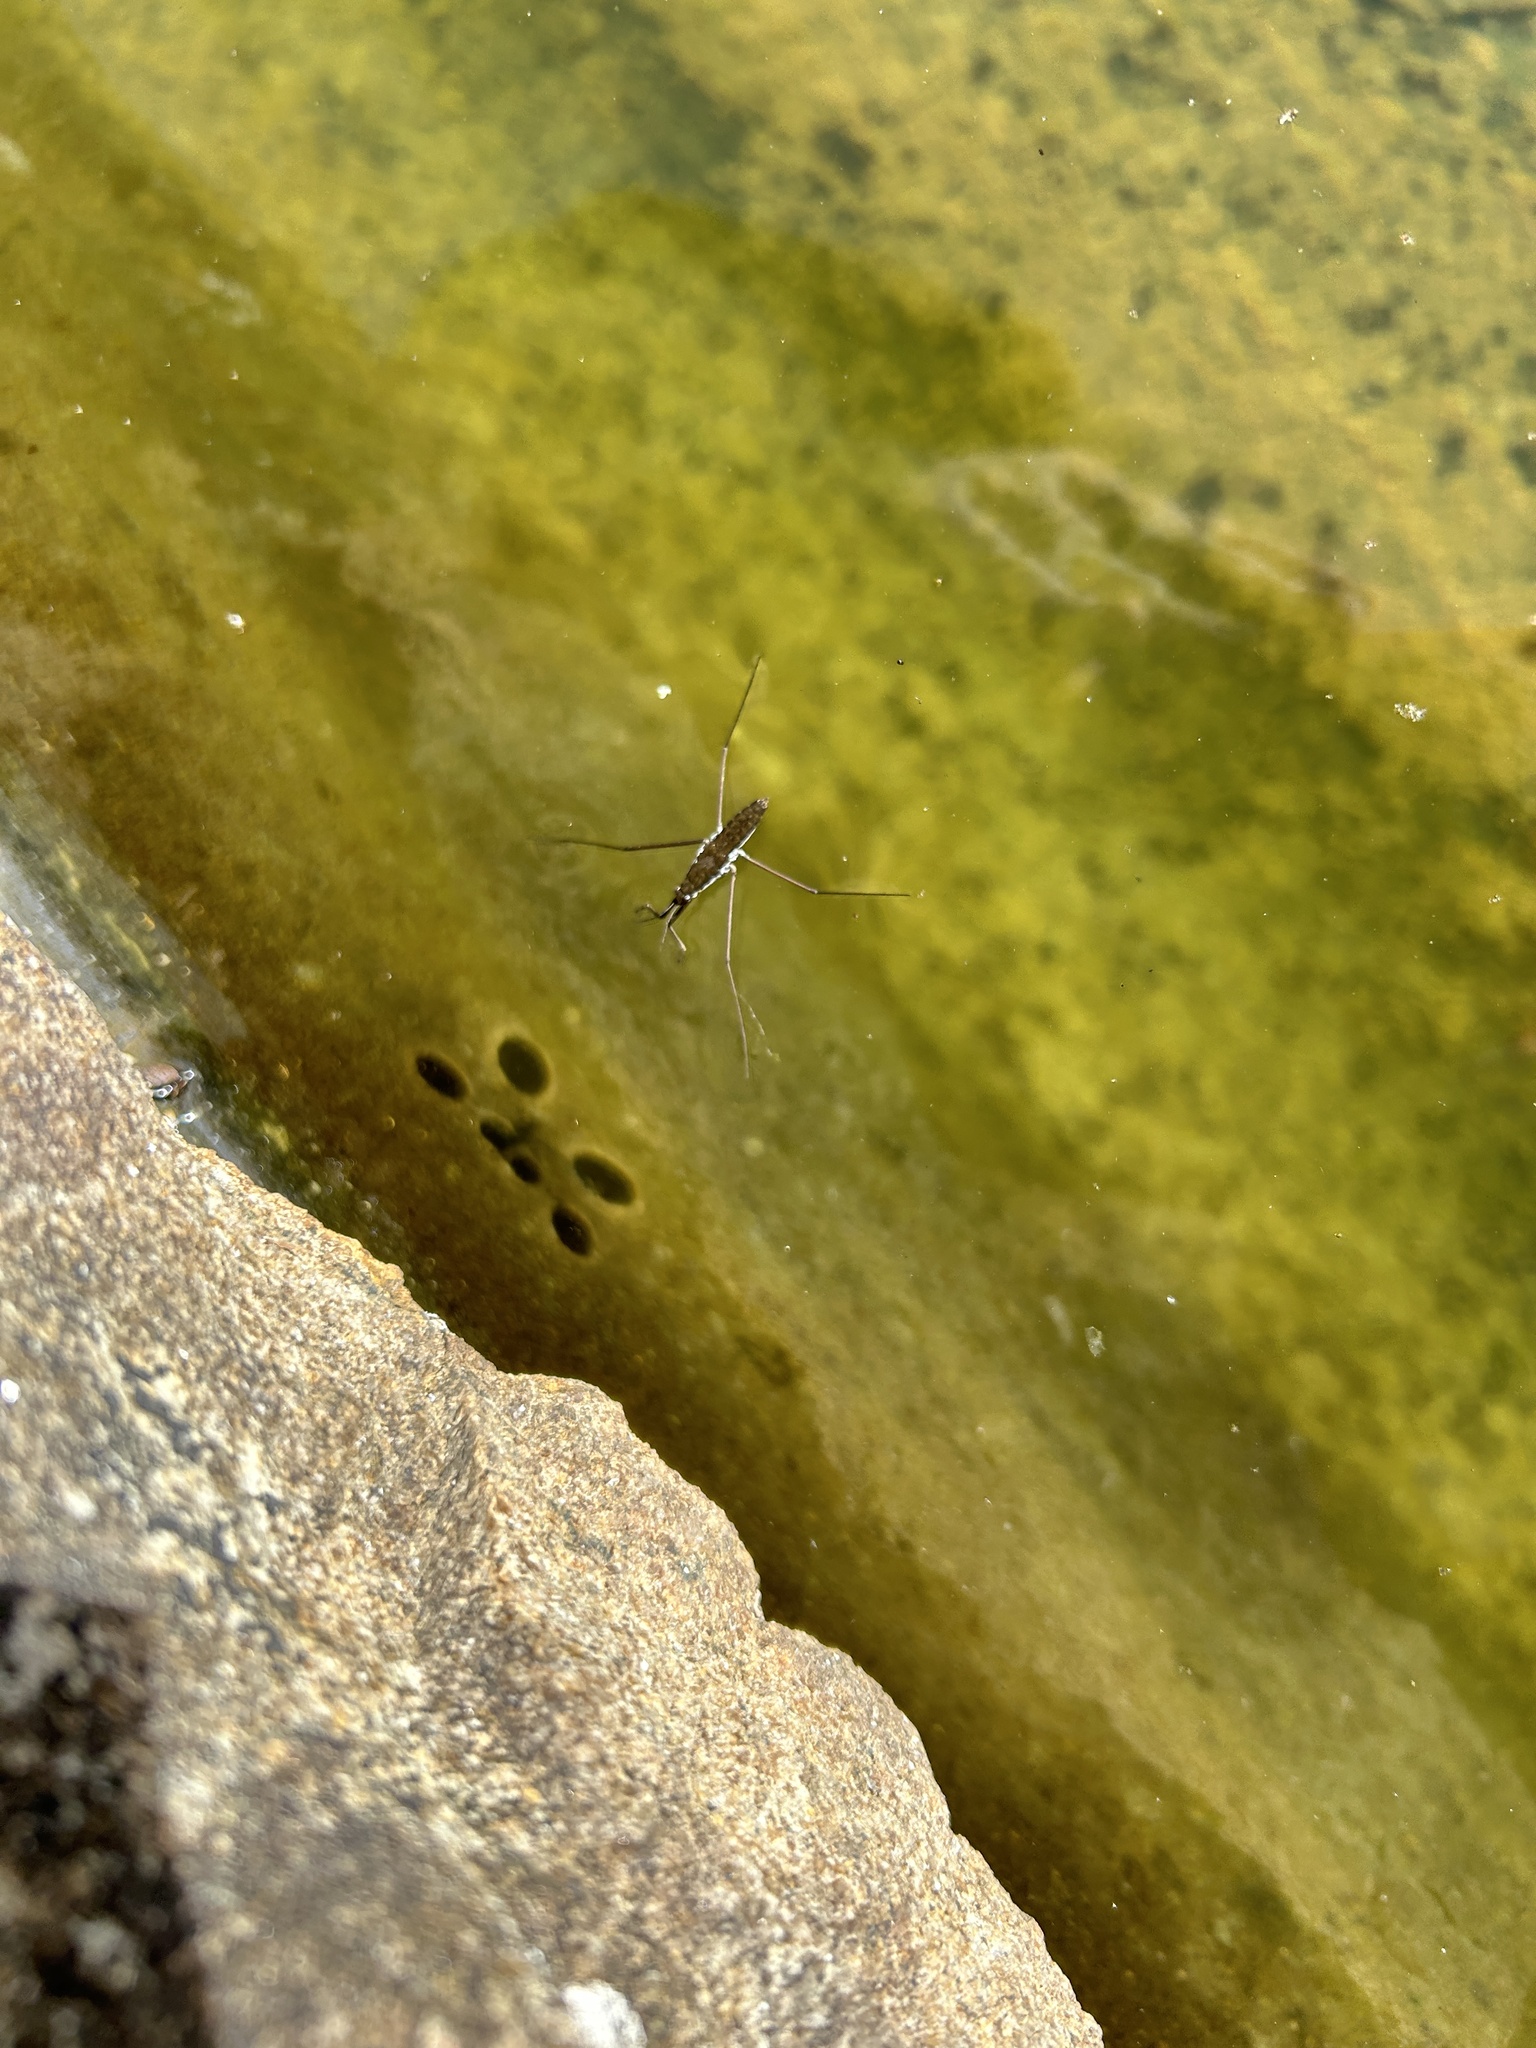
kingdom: Animalia
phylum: Arthropoda
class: Insecta
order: Hemiptera
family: Gerridae
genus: Aquarius
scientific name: Aquarius remigis
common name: Common water strider
